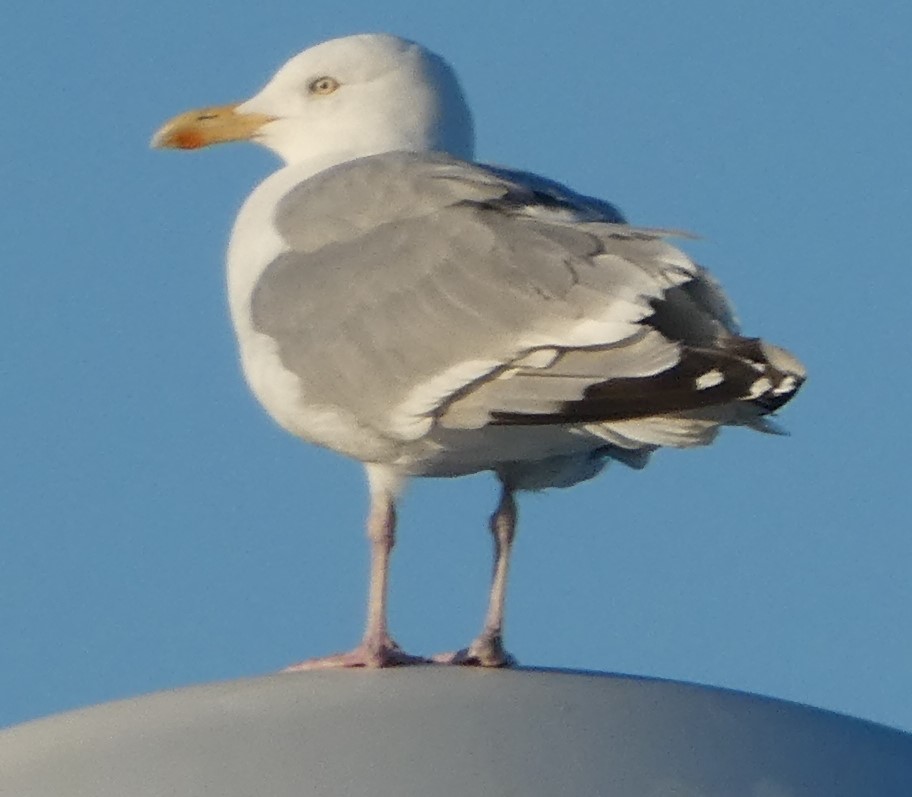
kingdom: Animalia
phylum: Chordata
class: Aves
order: Charadriiformes
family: Laridae
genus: Larus
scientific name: Larus argentatus
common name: Herring gull
